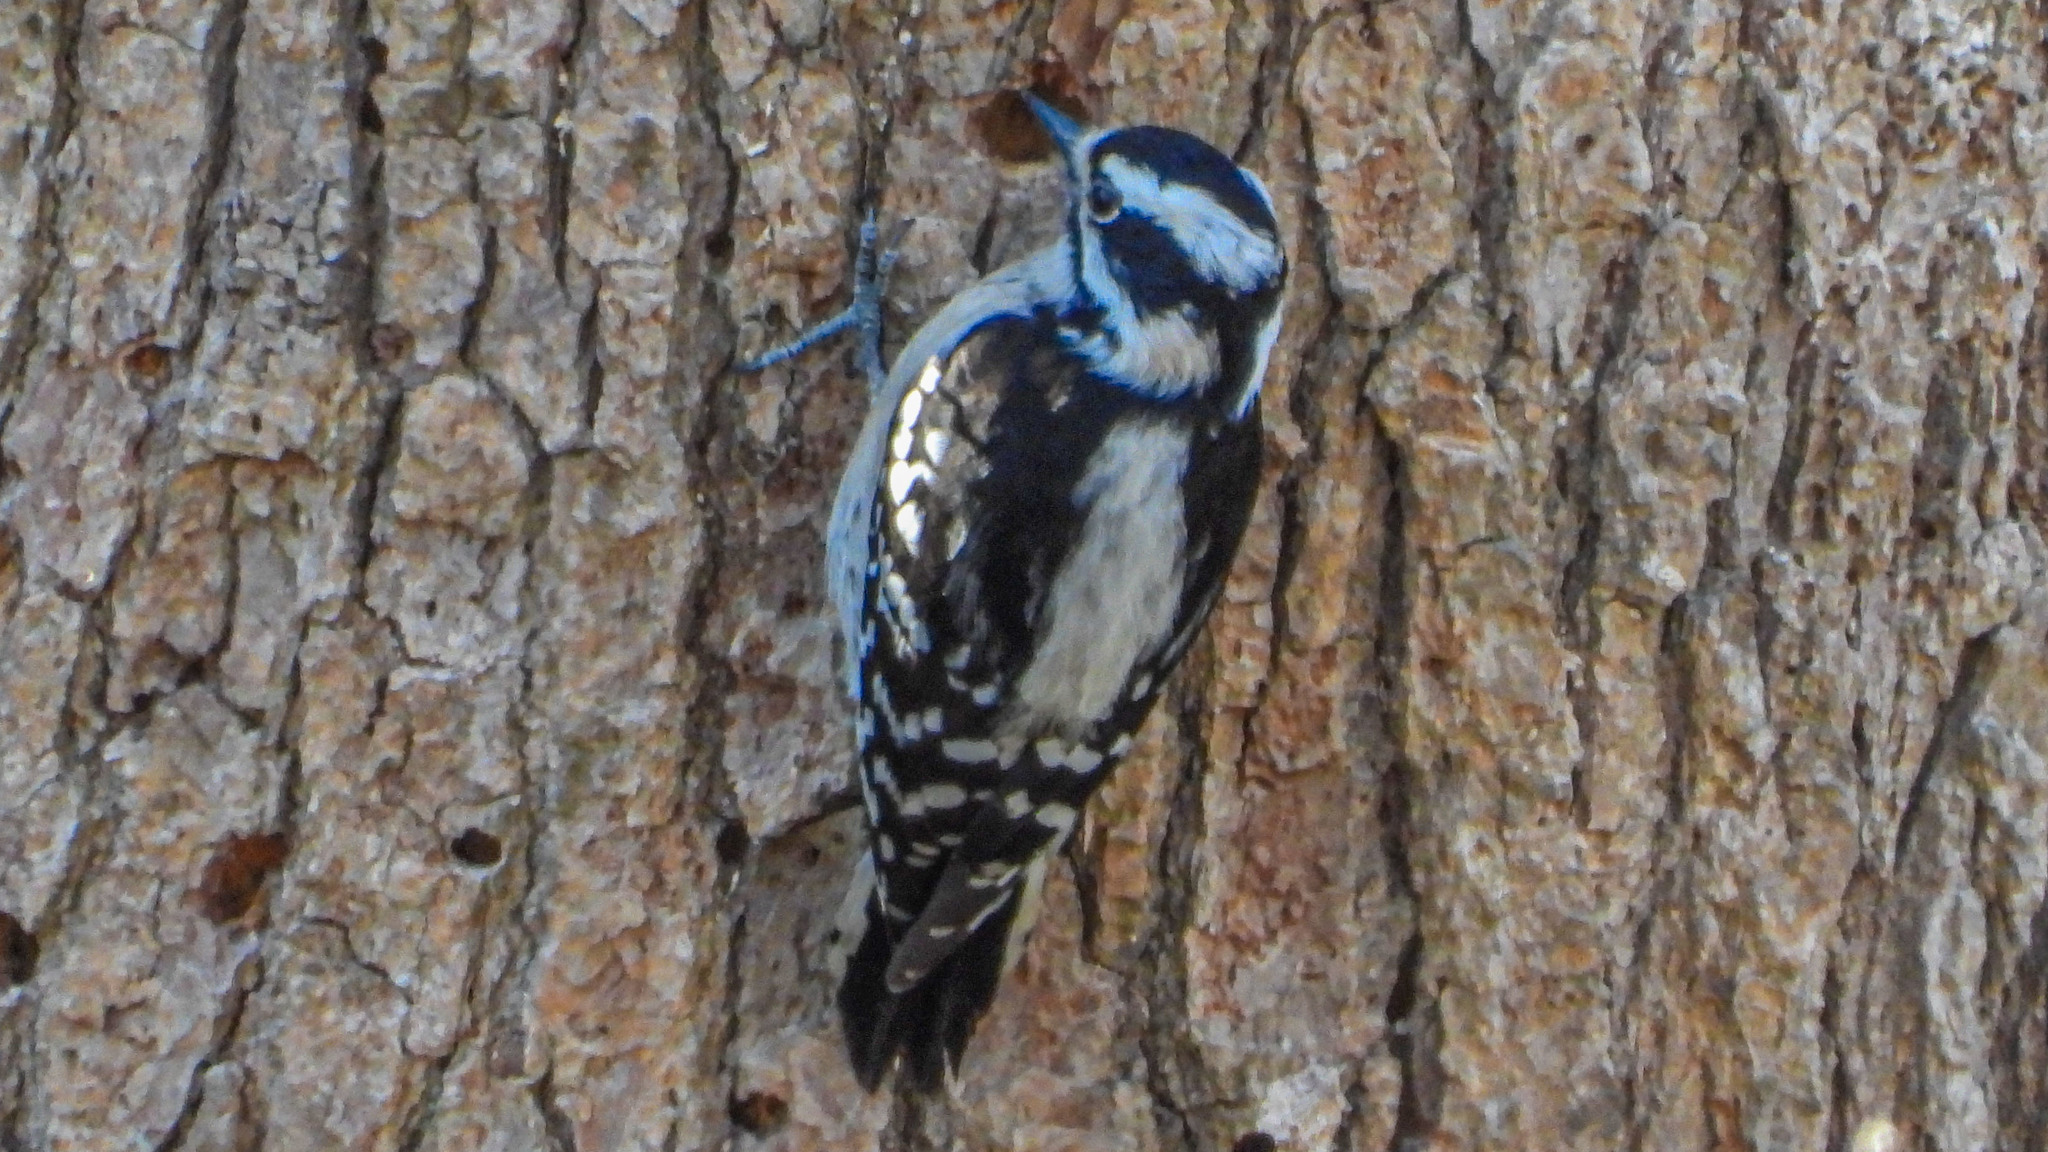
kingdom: Animalia
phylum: Chordata
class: Aves
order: Piciformes
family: Picidae
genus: Dryobates
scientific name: Dryobates pubescens
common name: Downy woodpecker
